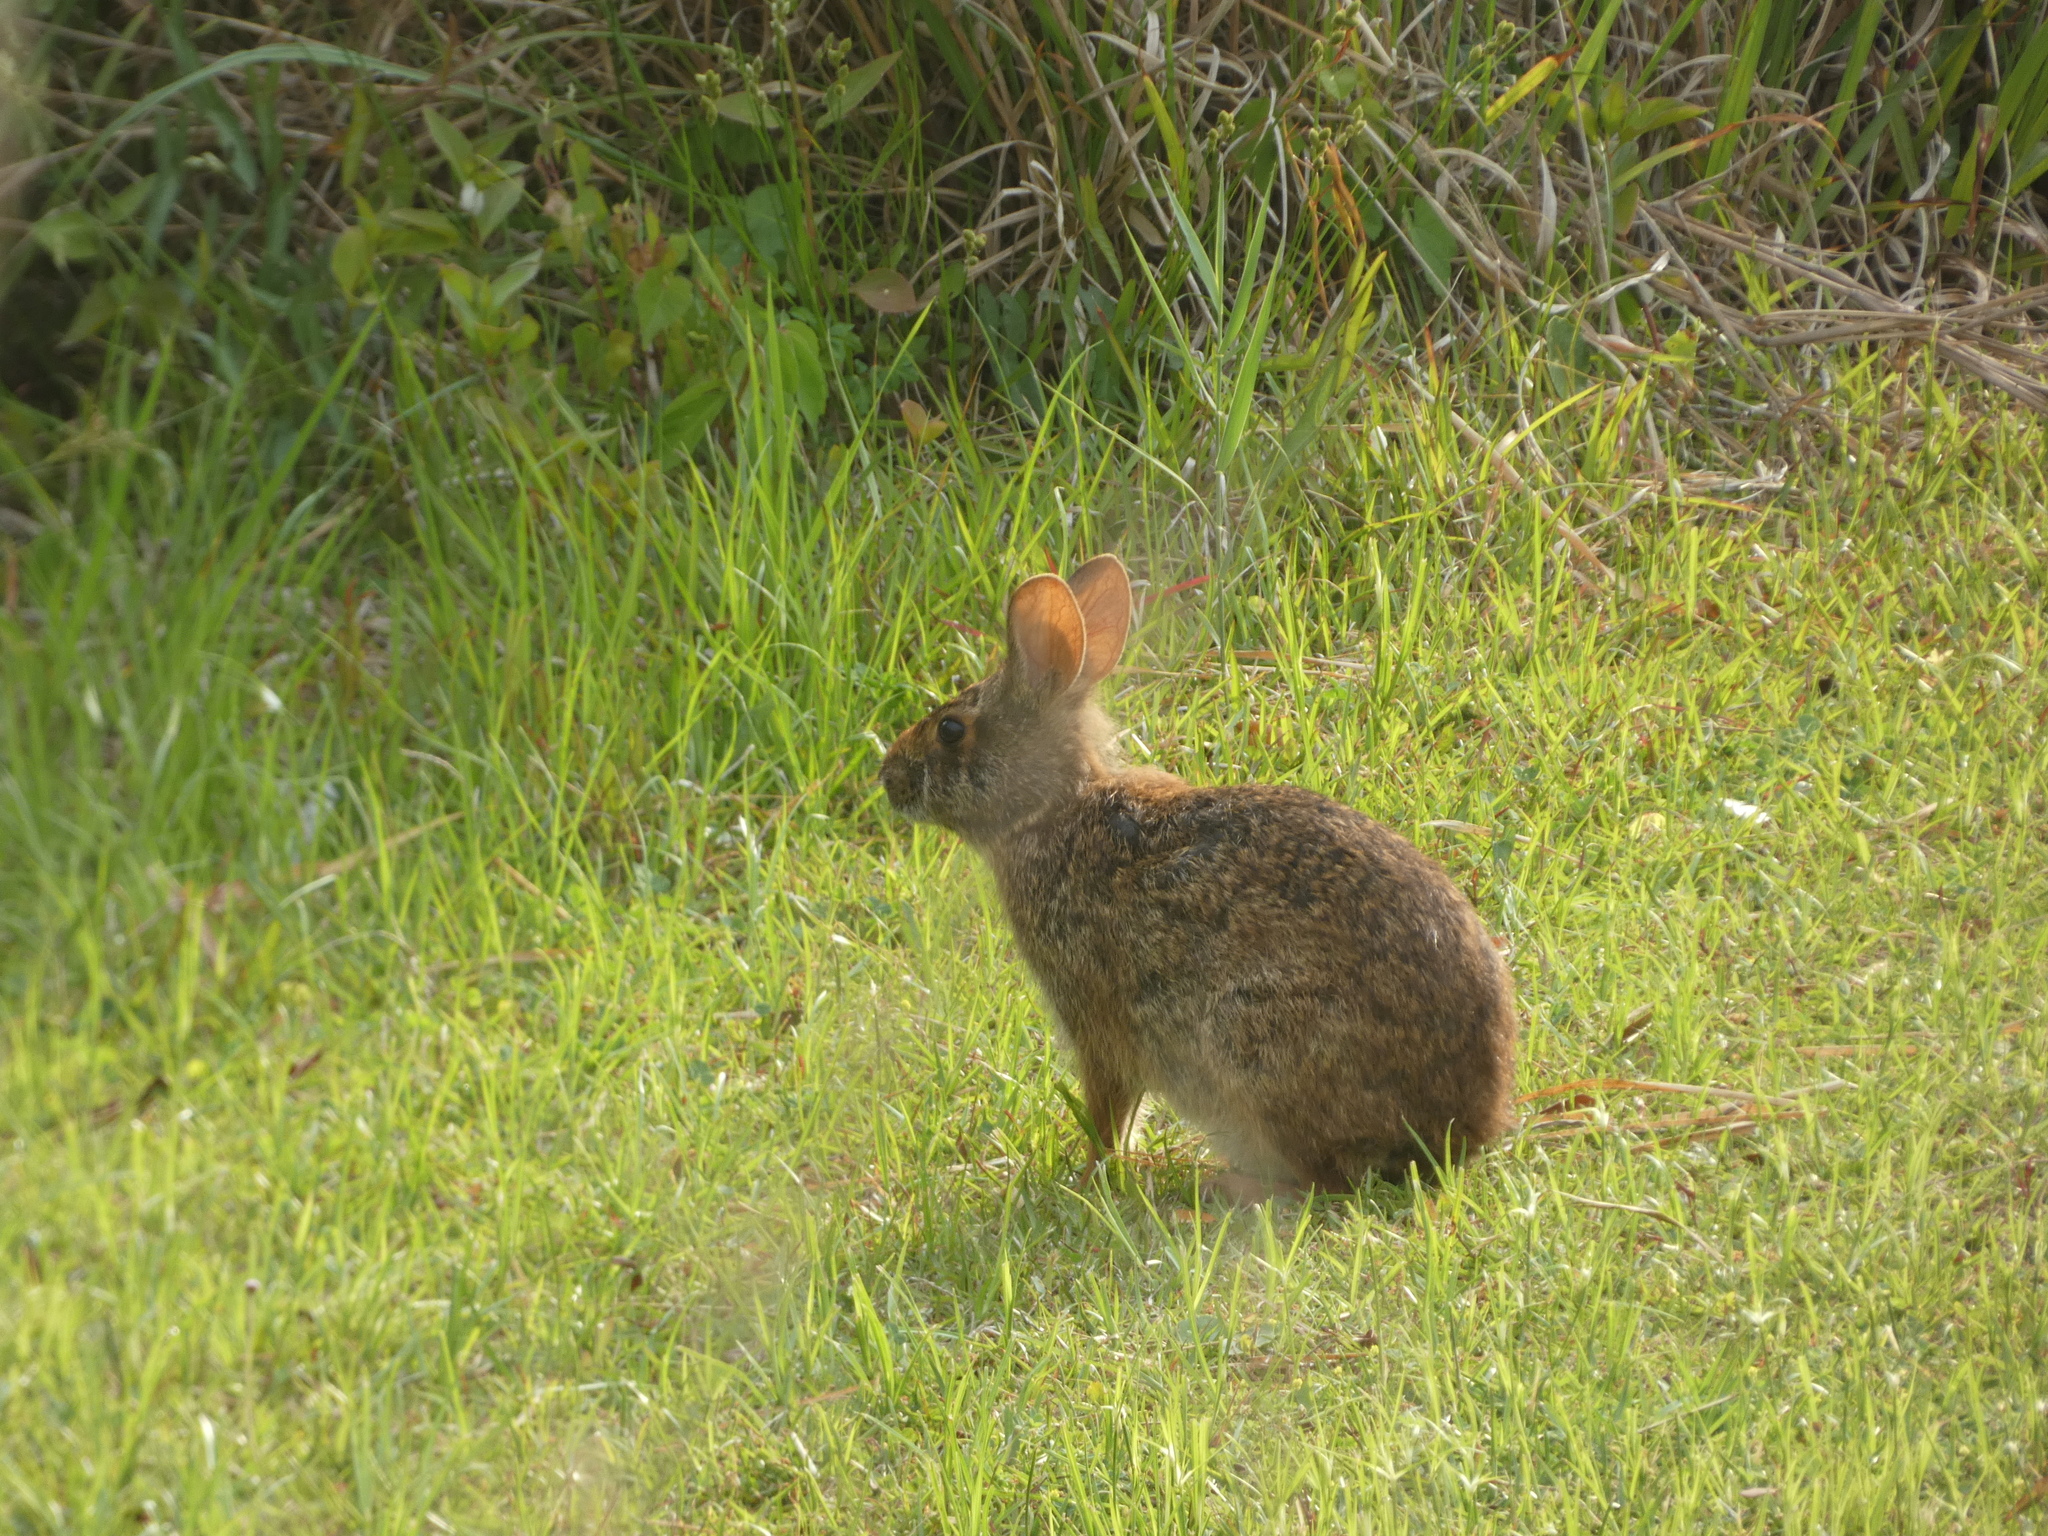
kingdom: Animalia
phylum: Chordata
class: Mammalia
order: Lagomorpha
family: Leporidae
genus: Sylvilagus
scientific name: Sylvilagus palustris
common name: Marsh rabbit
